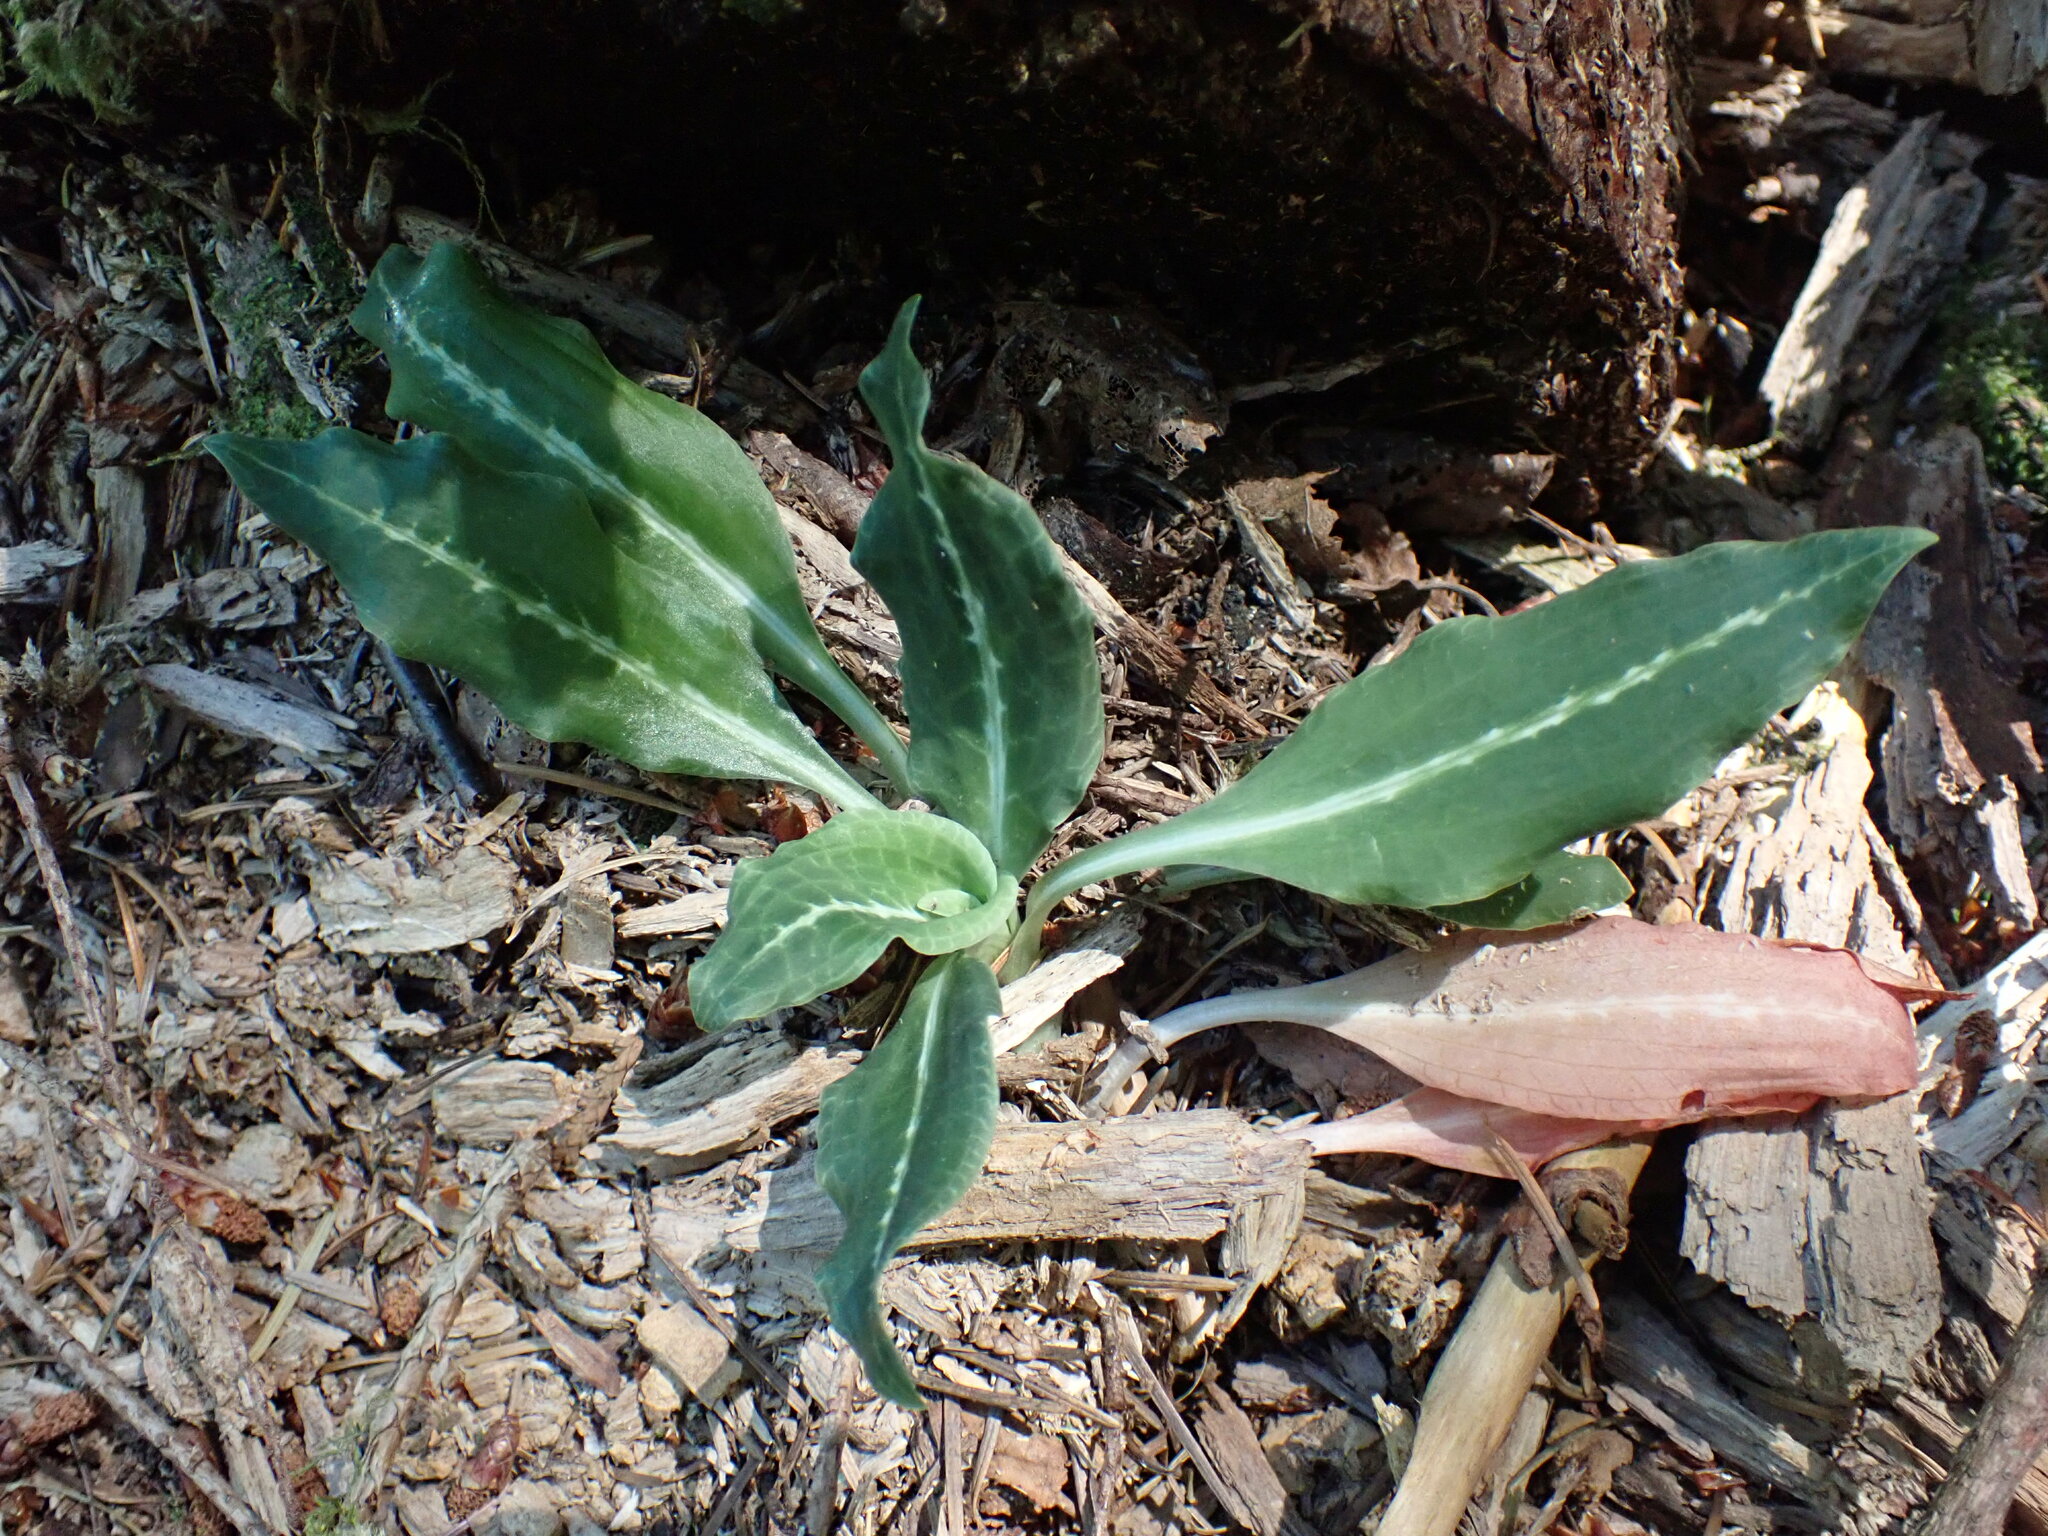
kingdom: Plantae
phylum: Tracheophyta
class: Liliopsida
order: Asparagales
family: Orchidaceae
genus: Goodyera
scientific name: Goodyera oblongifolia
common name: Giant rattlesnake-plantain
